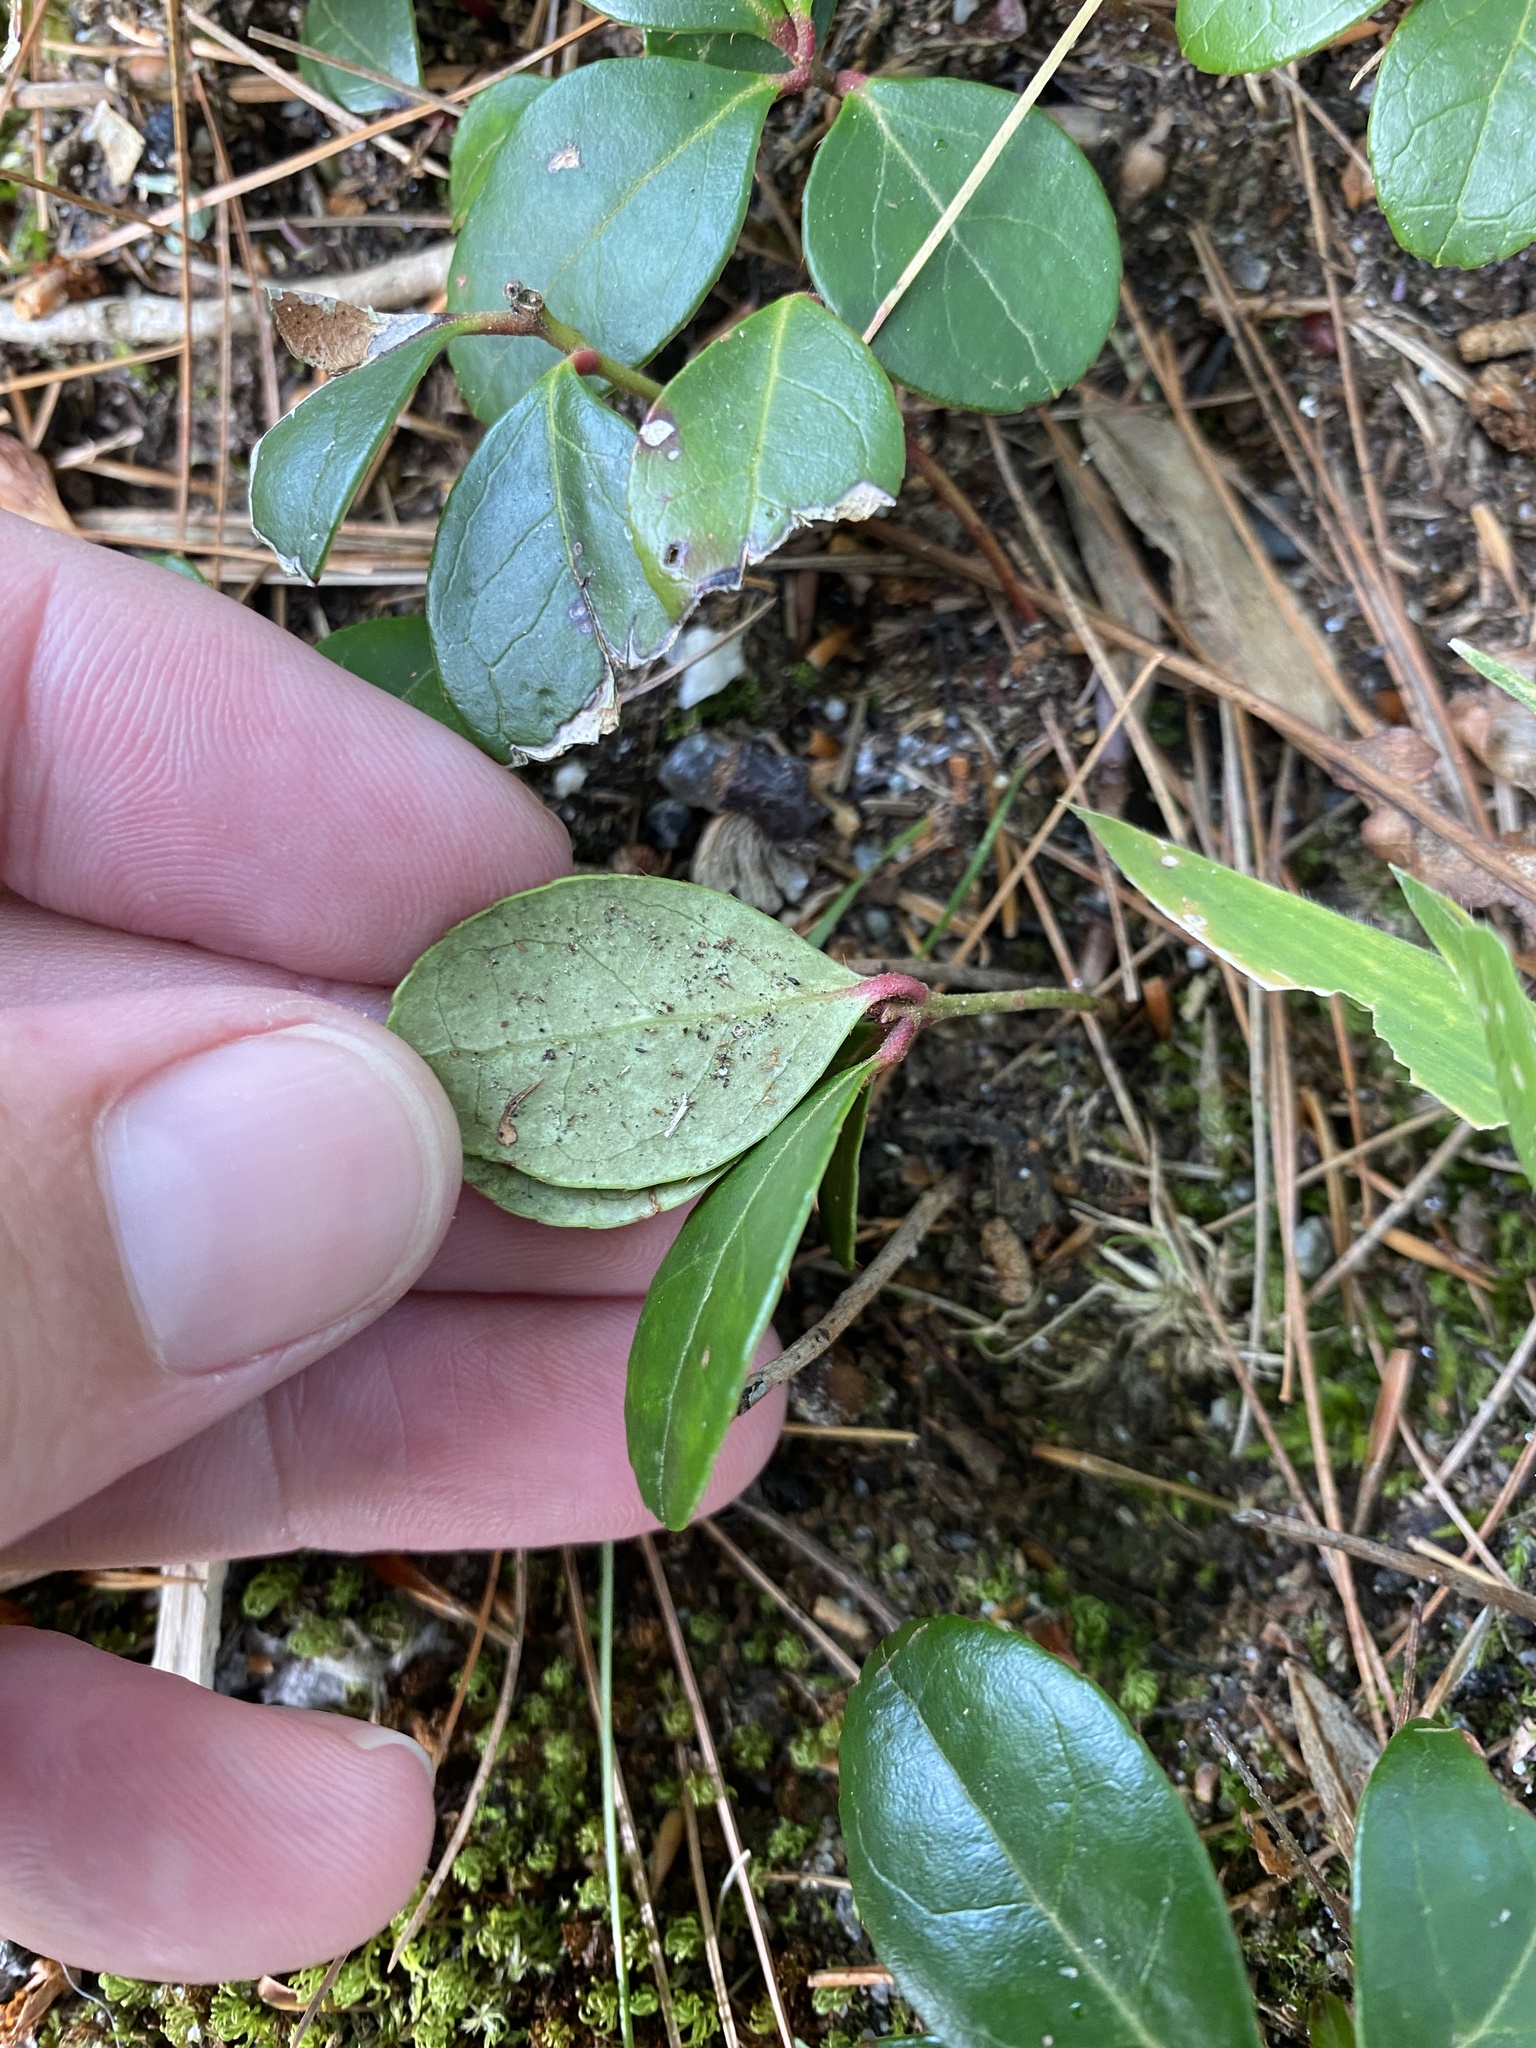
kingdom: Plantae
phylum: Tracheophyta
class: Magnoliopsida
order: Ericales
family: Ericaceae
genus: Gaultheria
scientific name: Gaultheria procumbens
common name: Checkerberry
